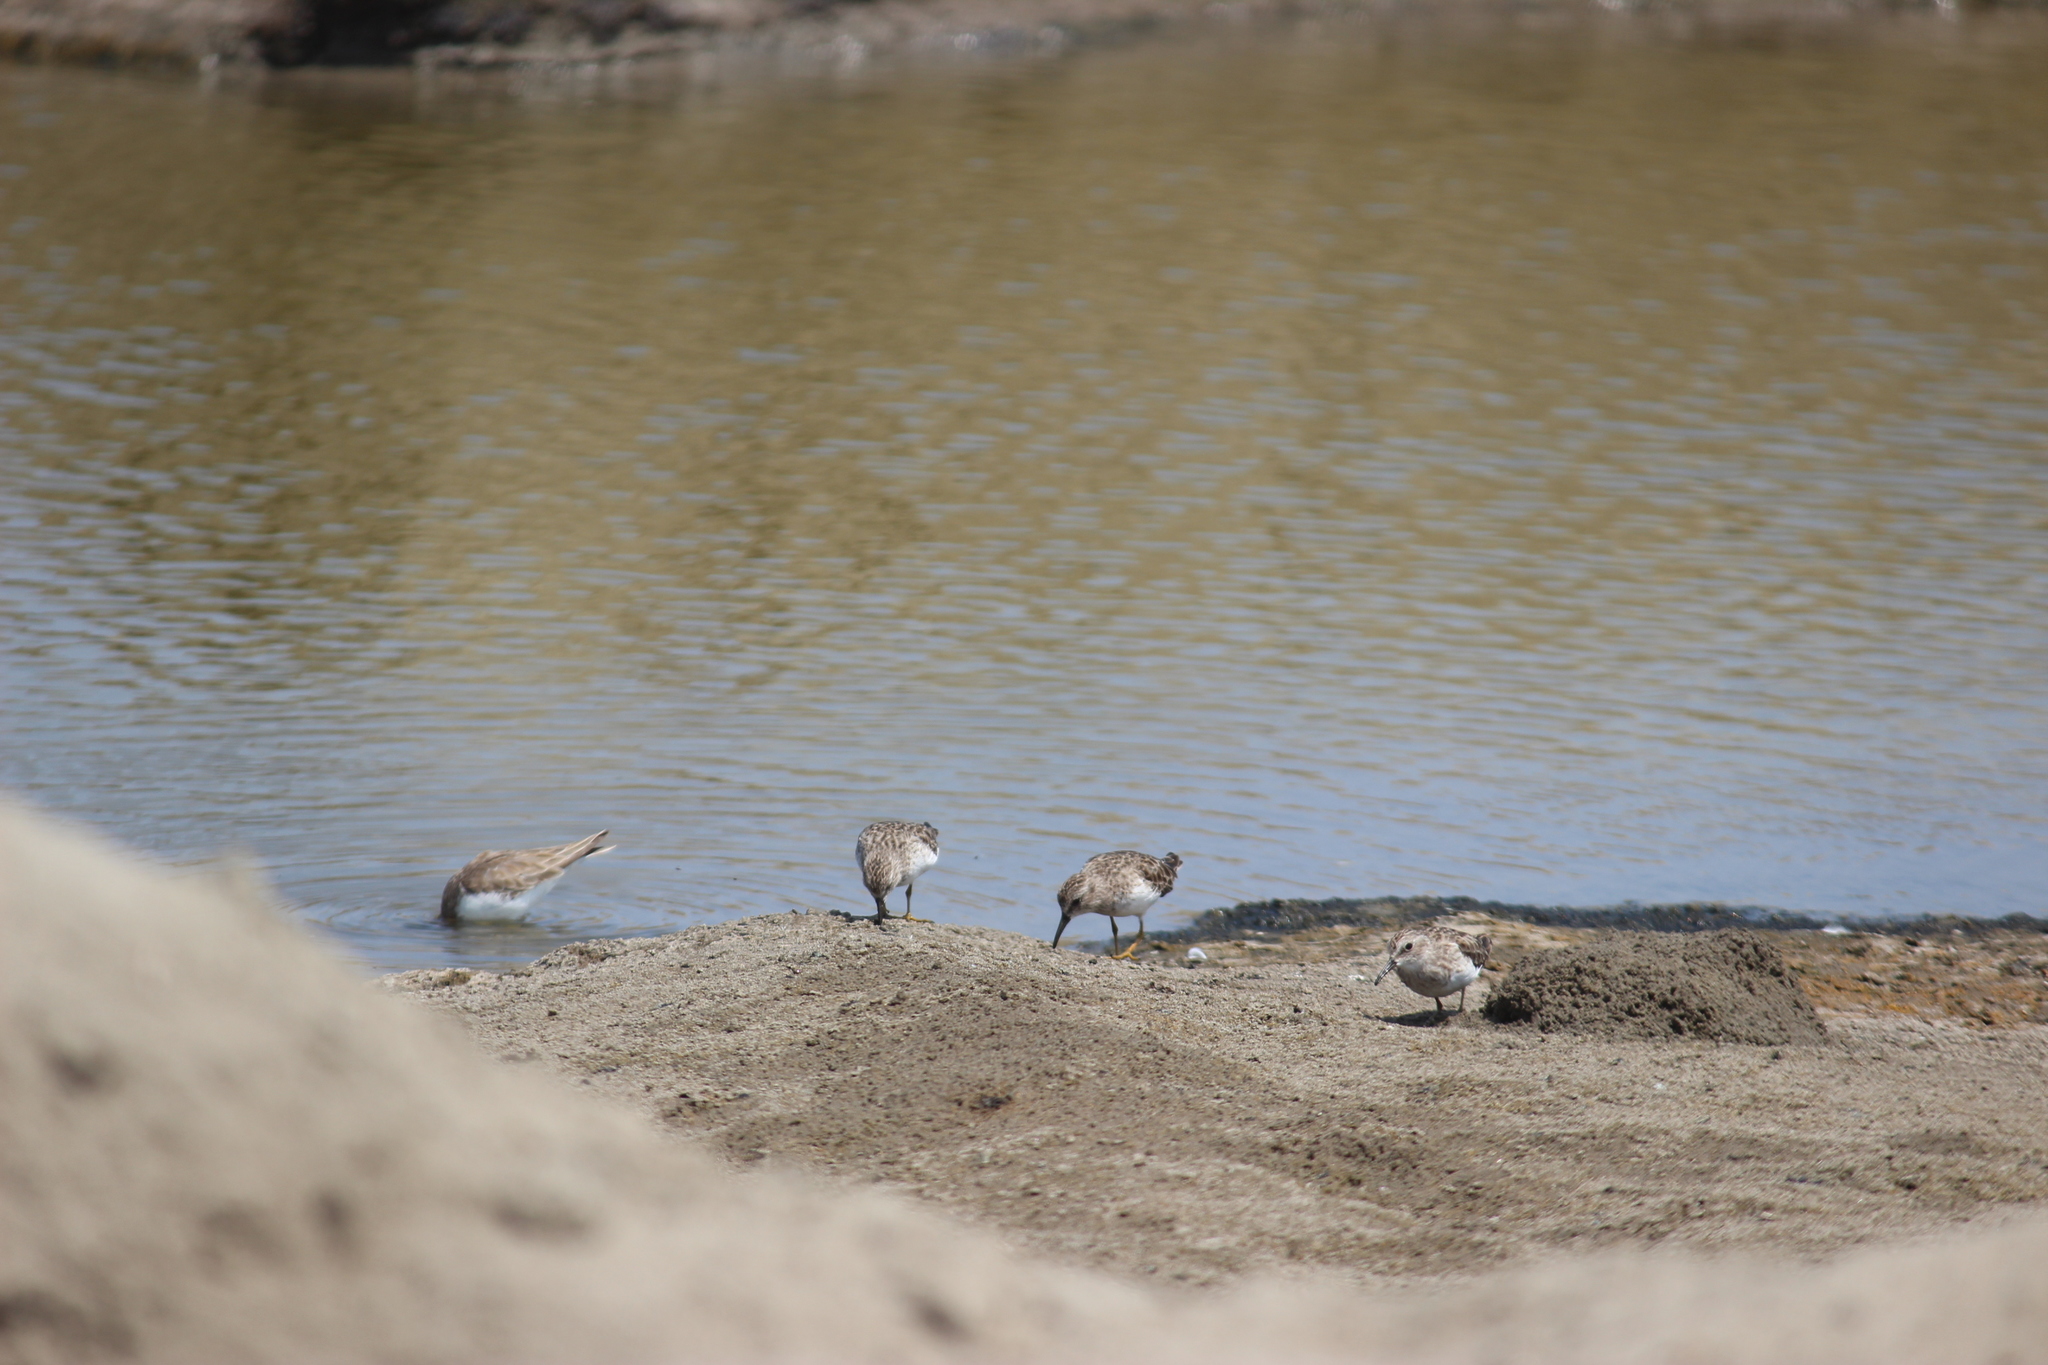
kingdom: Animalia
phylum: Chordata
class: Aves
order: Charadriiformes
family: Scolopacidae
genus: Calidris
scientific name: Calidris minutilla
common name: Least sandpiper
